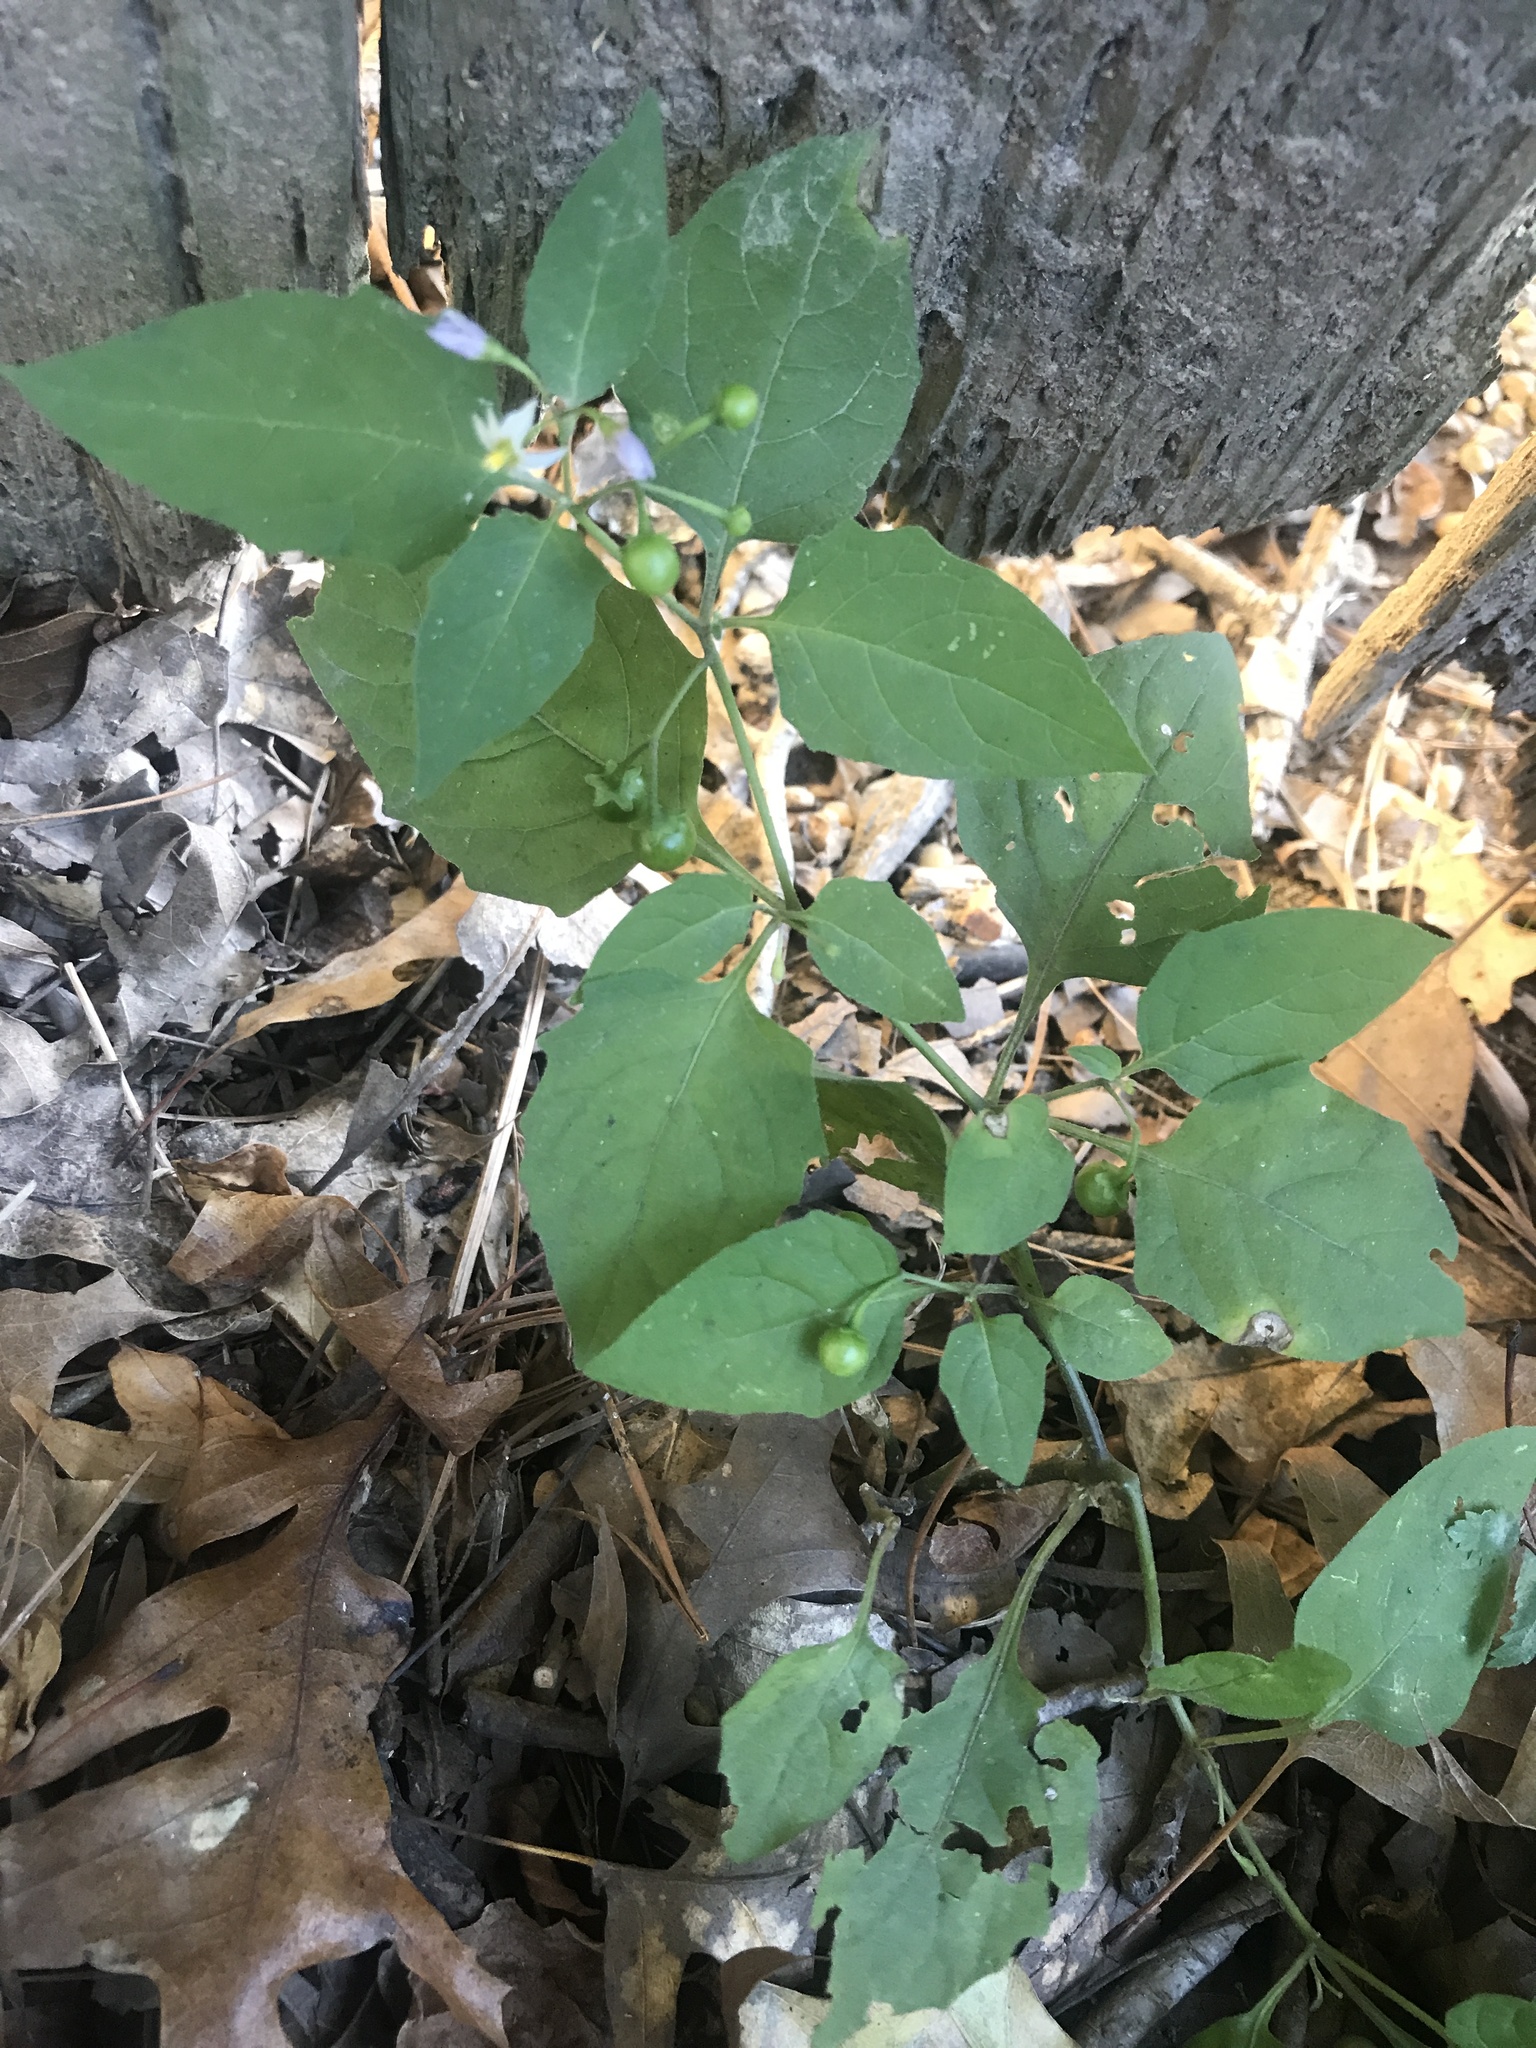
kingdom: Plantae
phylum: Tracheophyta
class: Magnoliopsida
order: Solanales
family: Solanaceae
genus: Solanum
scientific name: Solanum emulans
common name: Eastern black nightshade
